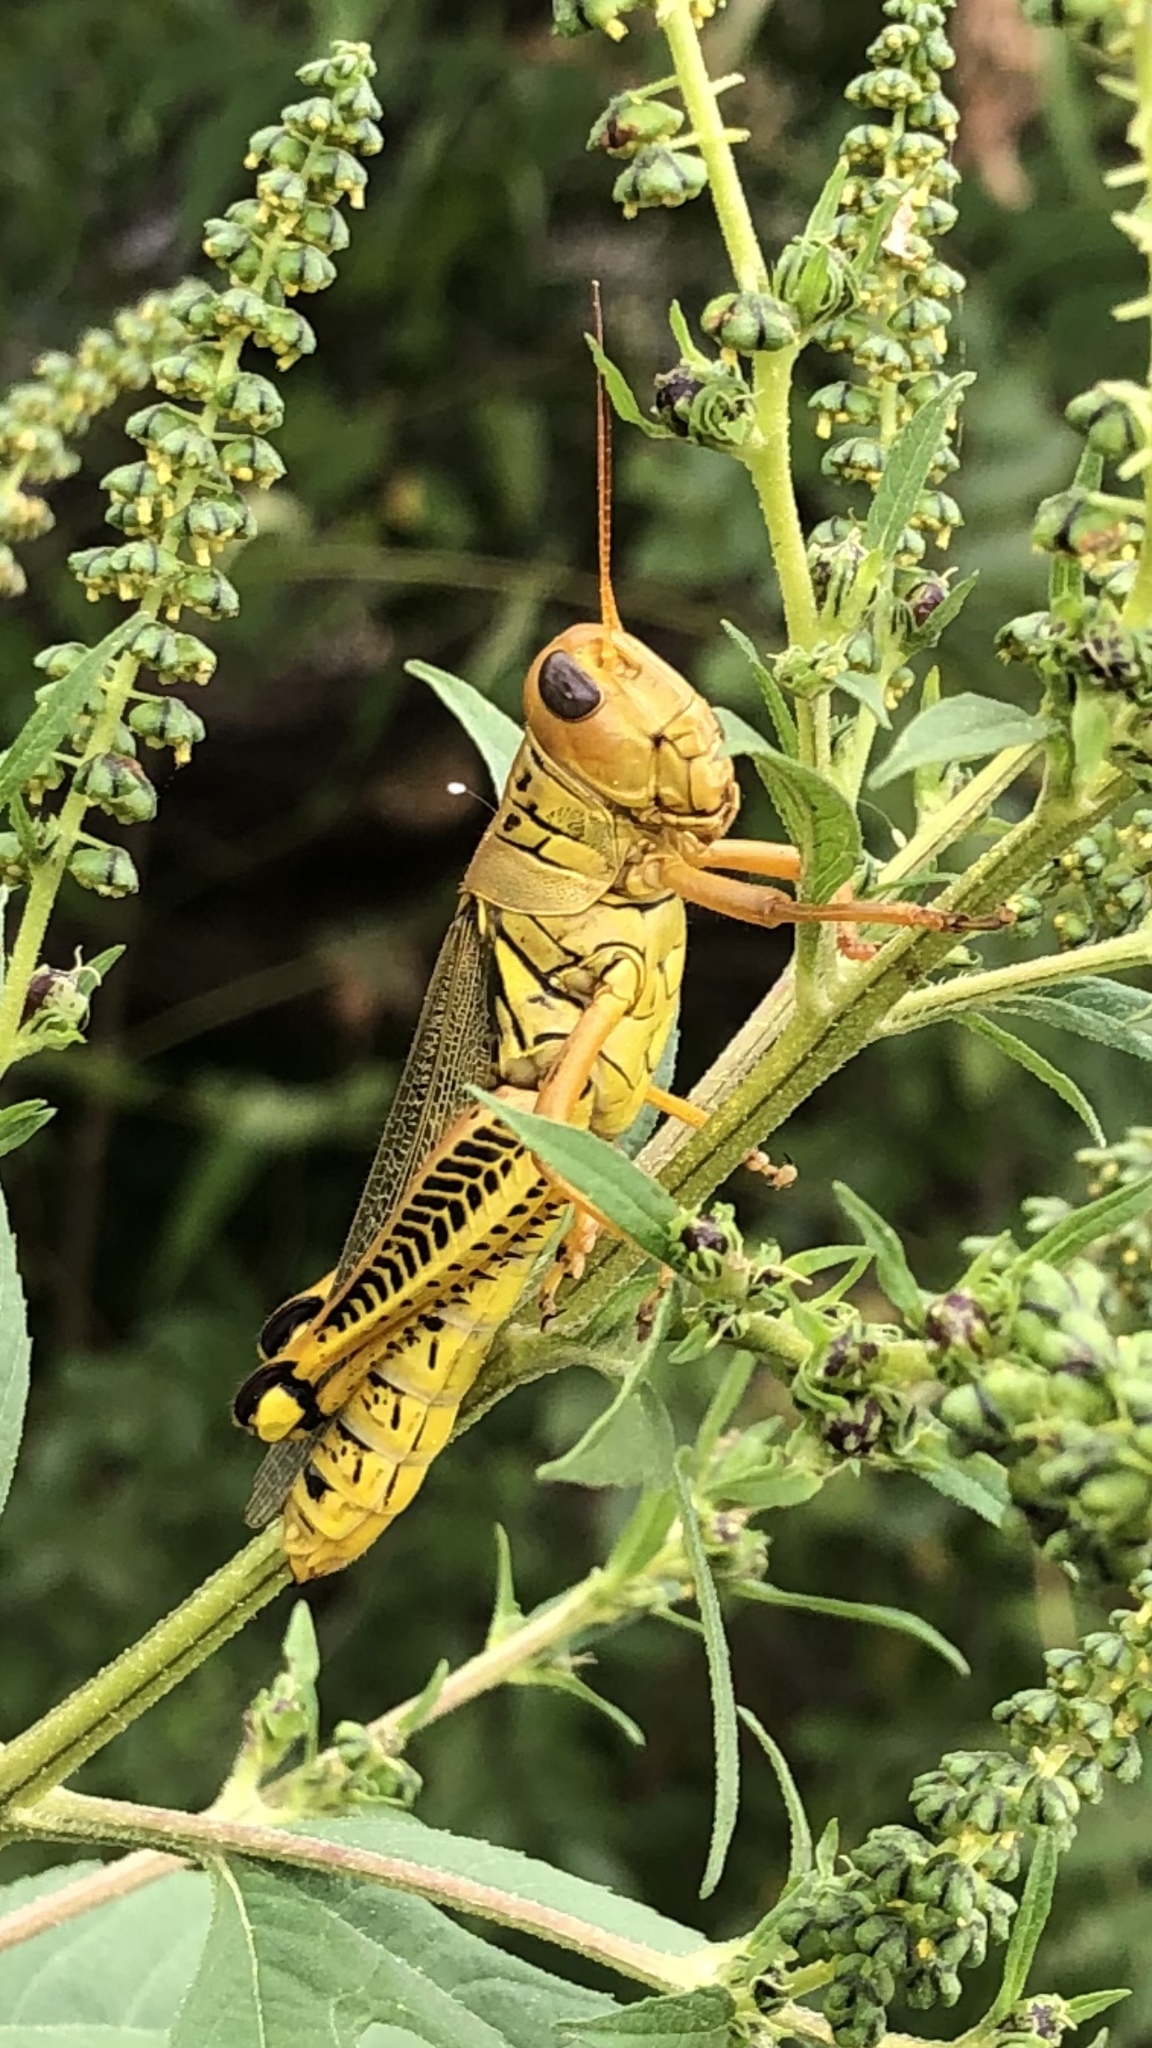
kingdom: Animalia
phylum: Arthropoda
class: Insecta
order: Orthoptera
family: Acrididae
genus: Melanoplus
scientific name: Melanoplus differentialis
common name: Differential grasshopper
